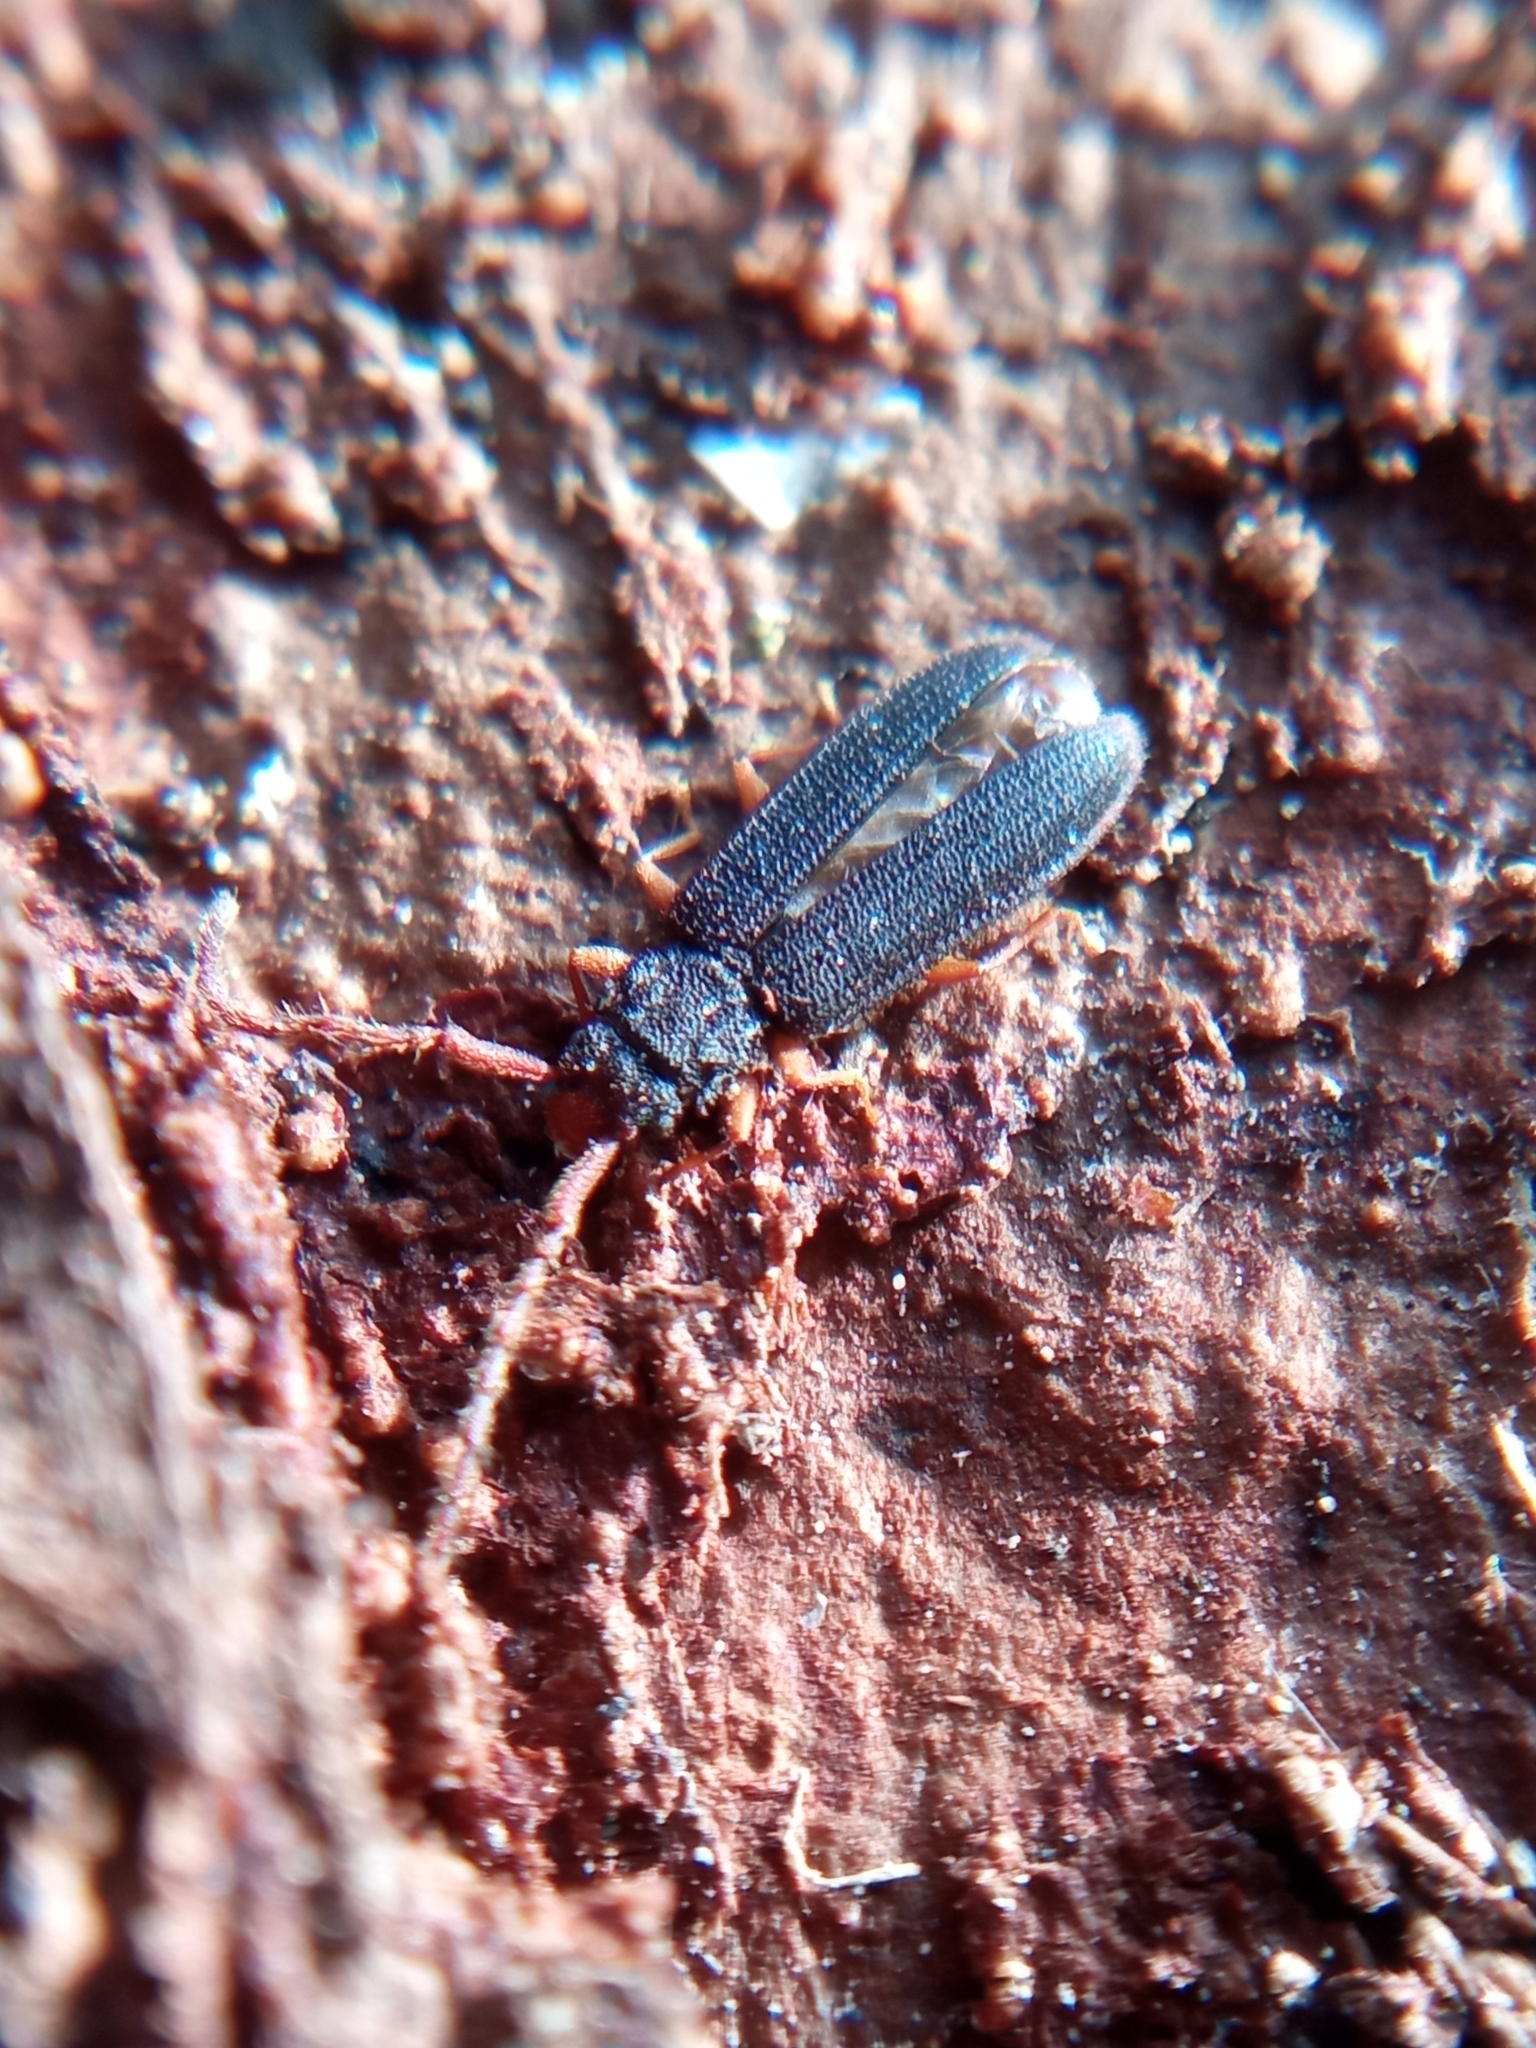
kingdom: Animalia
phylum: Arthropoda
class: Insecta
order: Coleoptera
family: Silvanidae
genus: Uleiota
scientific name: Uleiota planatus
